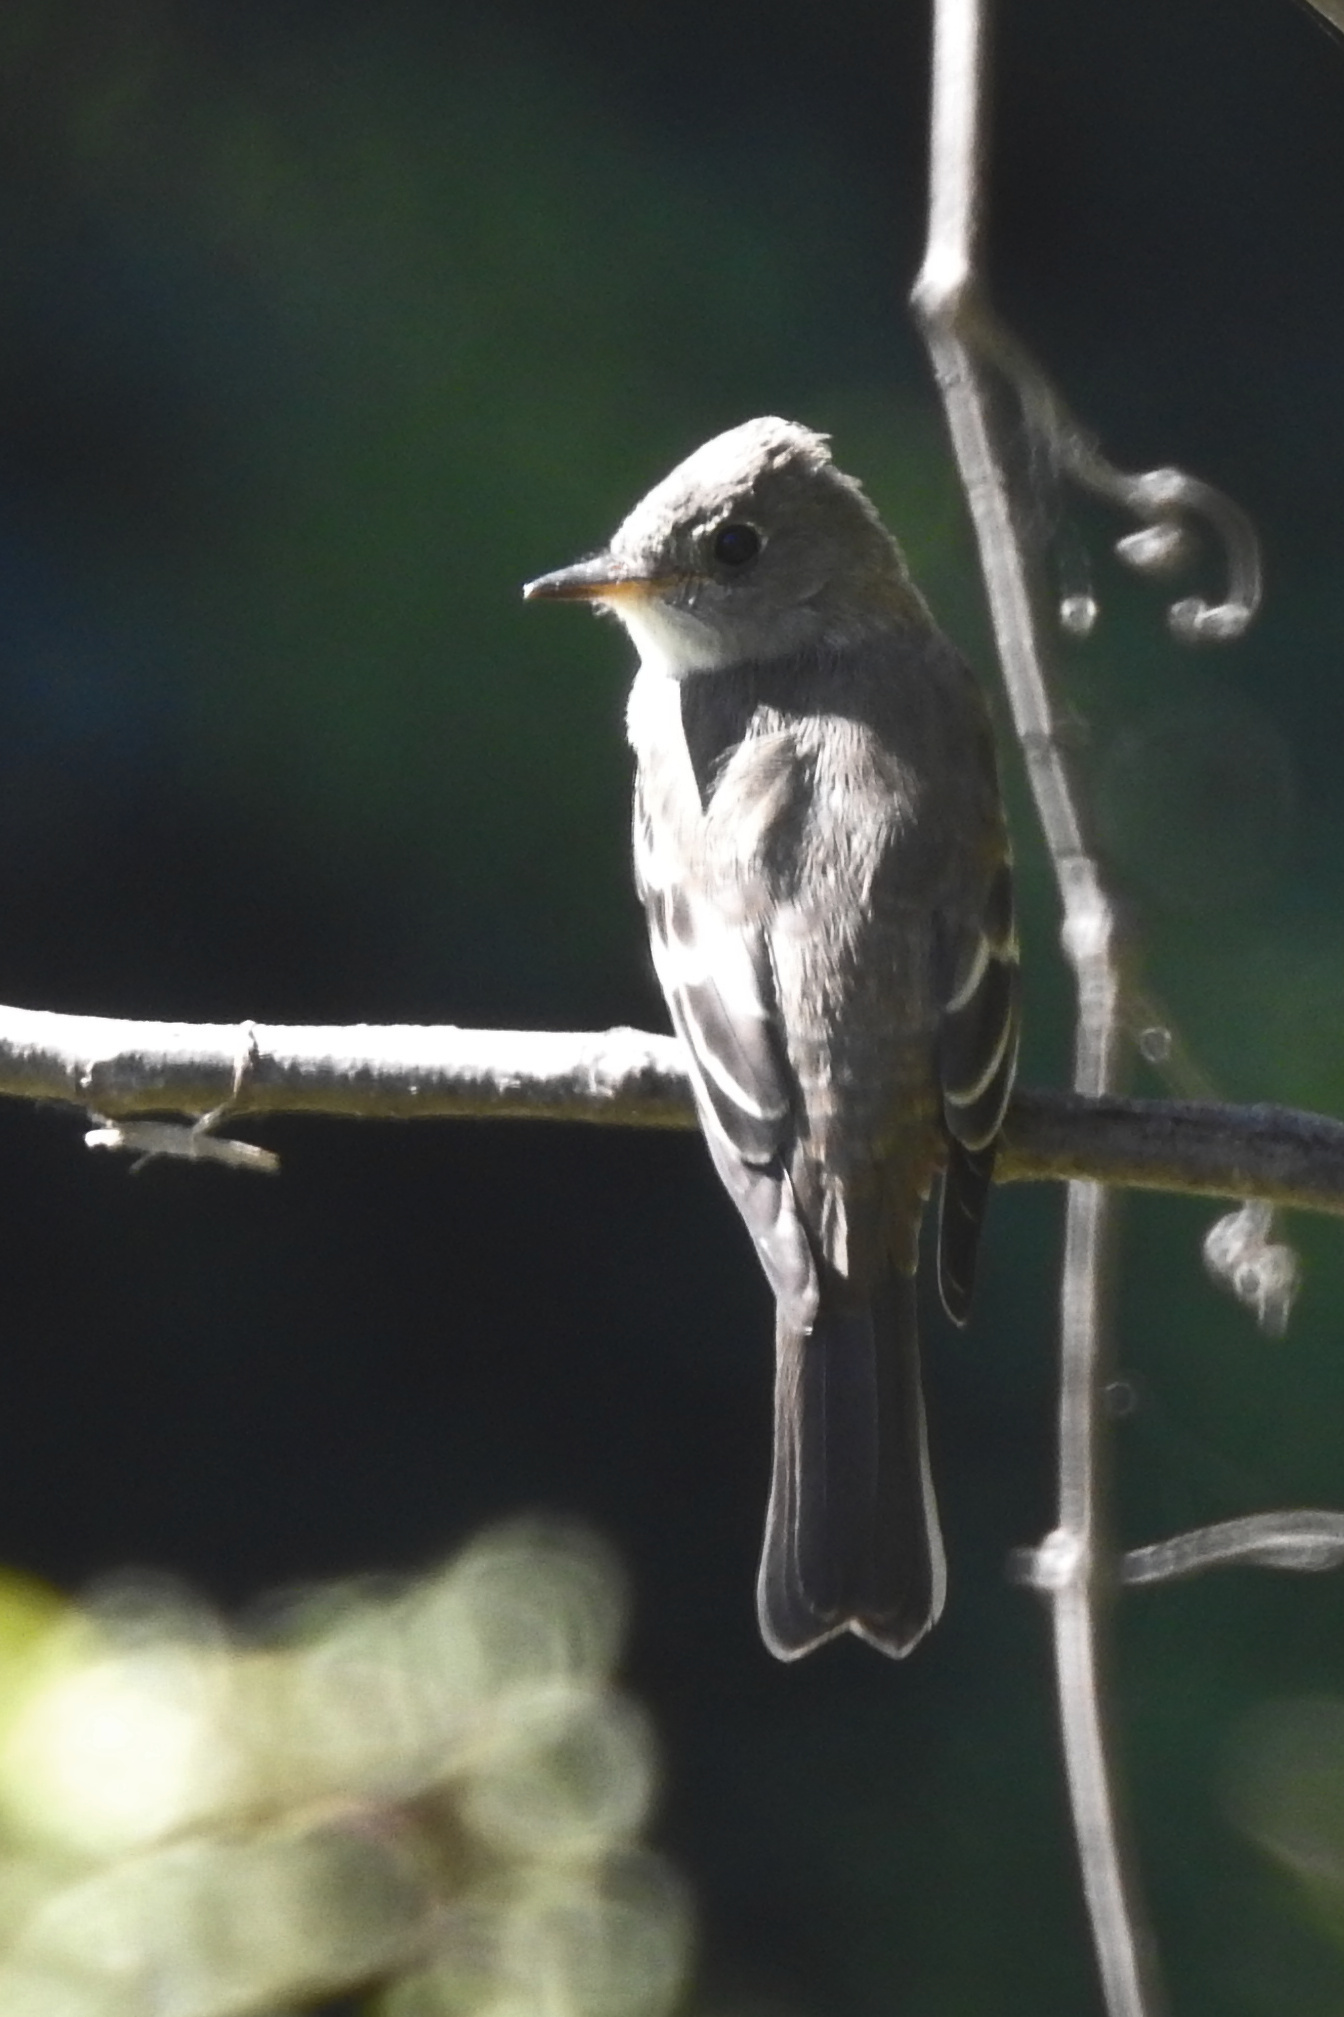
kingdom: Animalia
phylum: Chordata
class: Aves
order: Passeriformes
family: Tyrannidae
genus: Contopus
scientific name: Contopus virens
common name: Eastern wood-pewee
